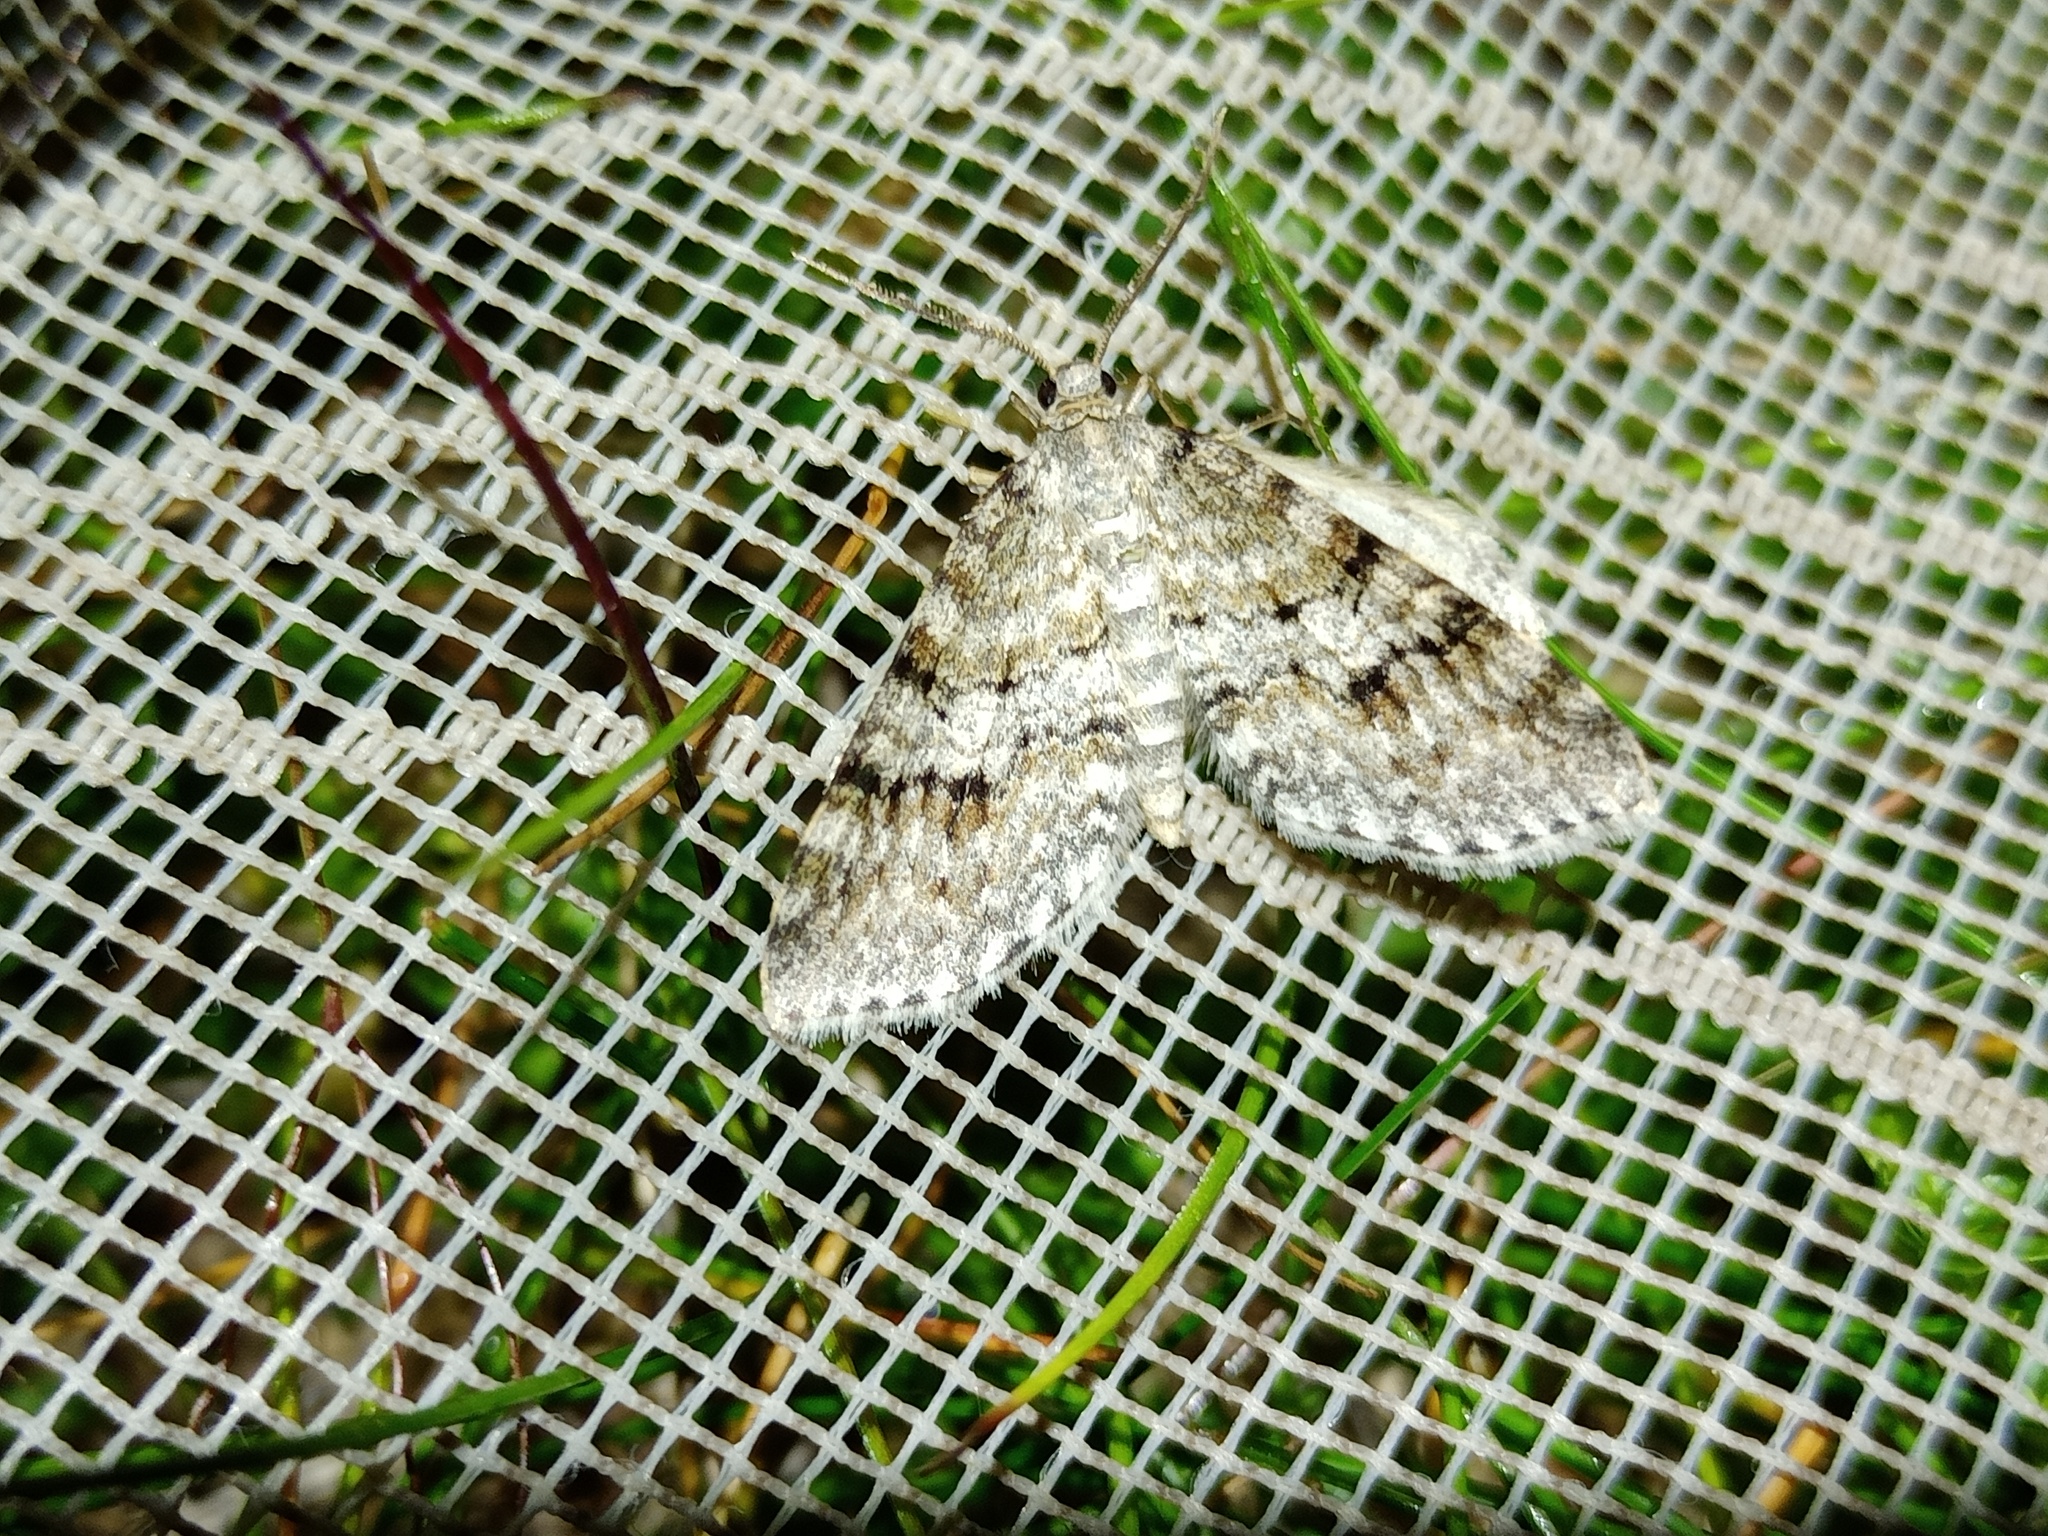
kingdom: Animalia
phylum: Arthropoda
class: Insecta
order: Lepidoptera
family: Geometridae
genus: Venusia
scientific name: Venusia cambrica
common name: Welsh wave
